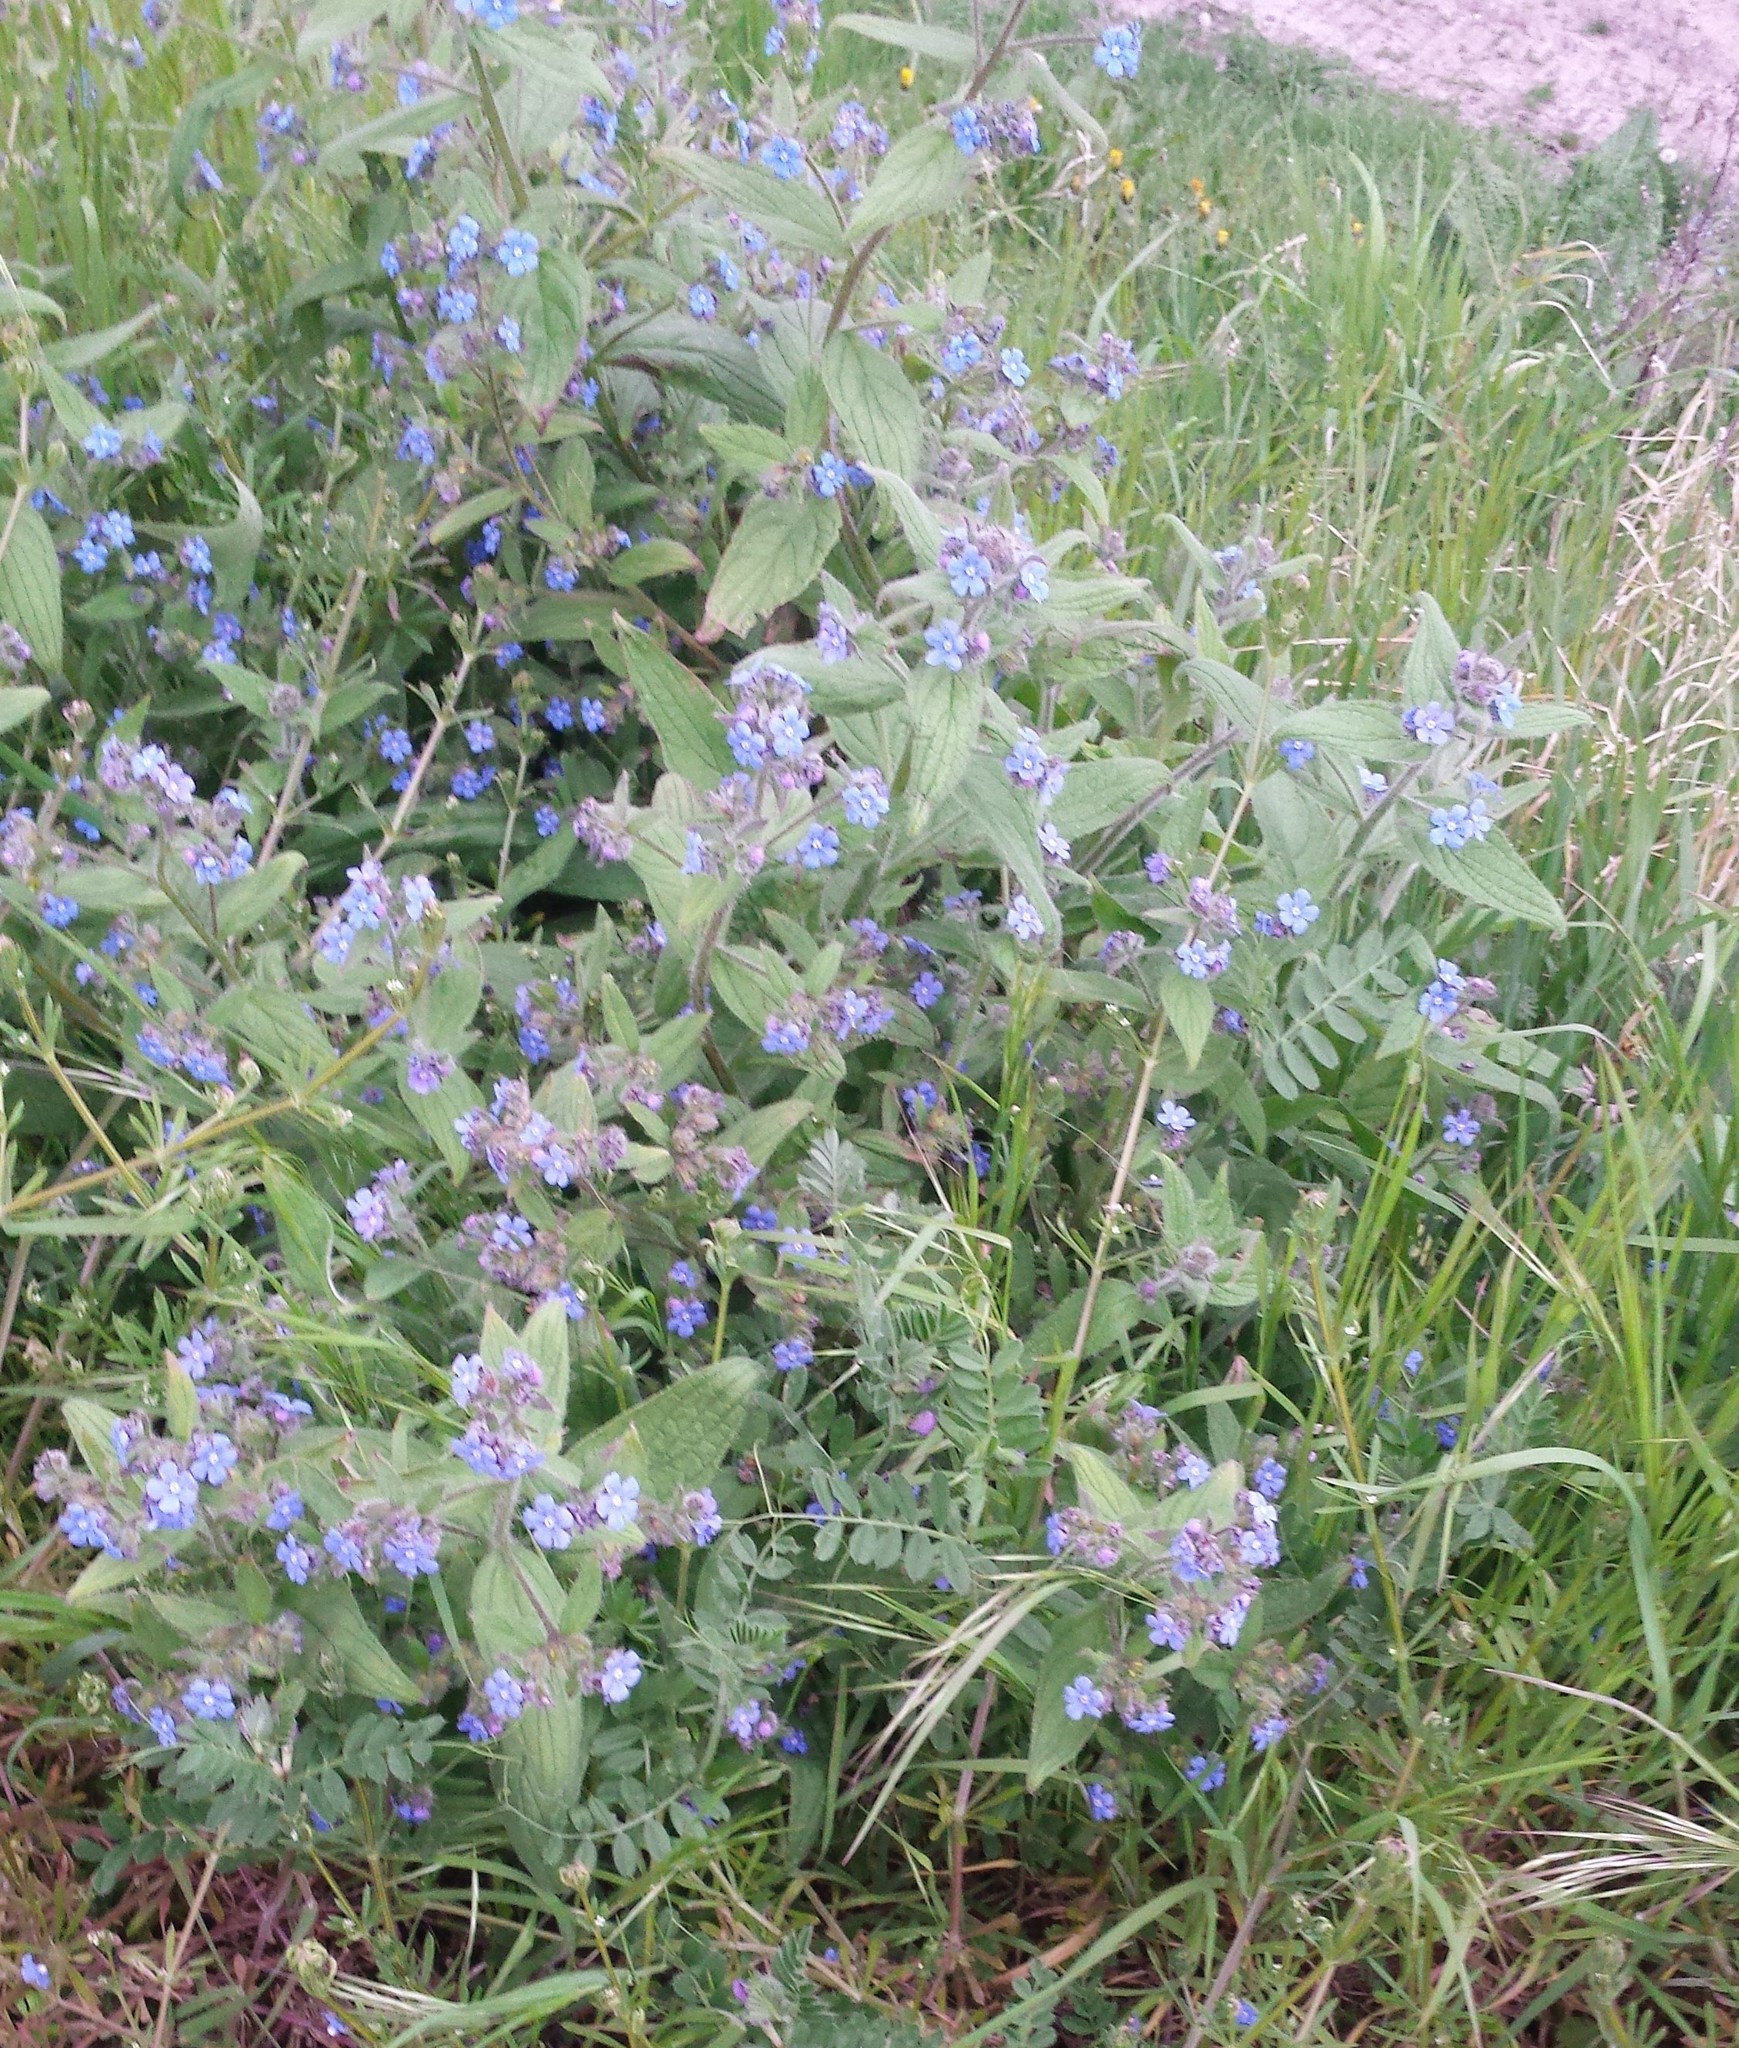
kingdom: Plantae
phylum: Tracheophyta
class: Magnoliopsida
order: Boraginales
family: Boraginaceae
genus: Pentaglottis
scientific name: Pentaglottis sempervirens
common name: Green alkanet
